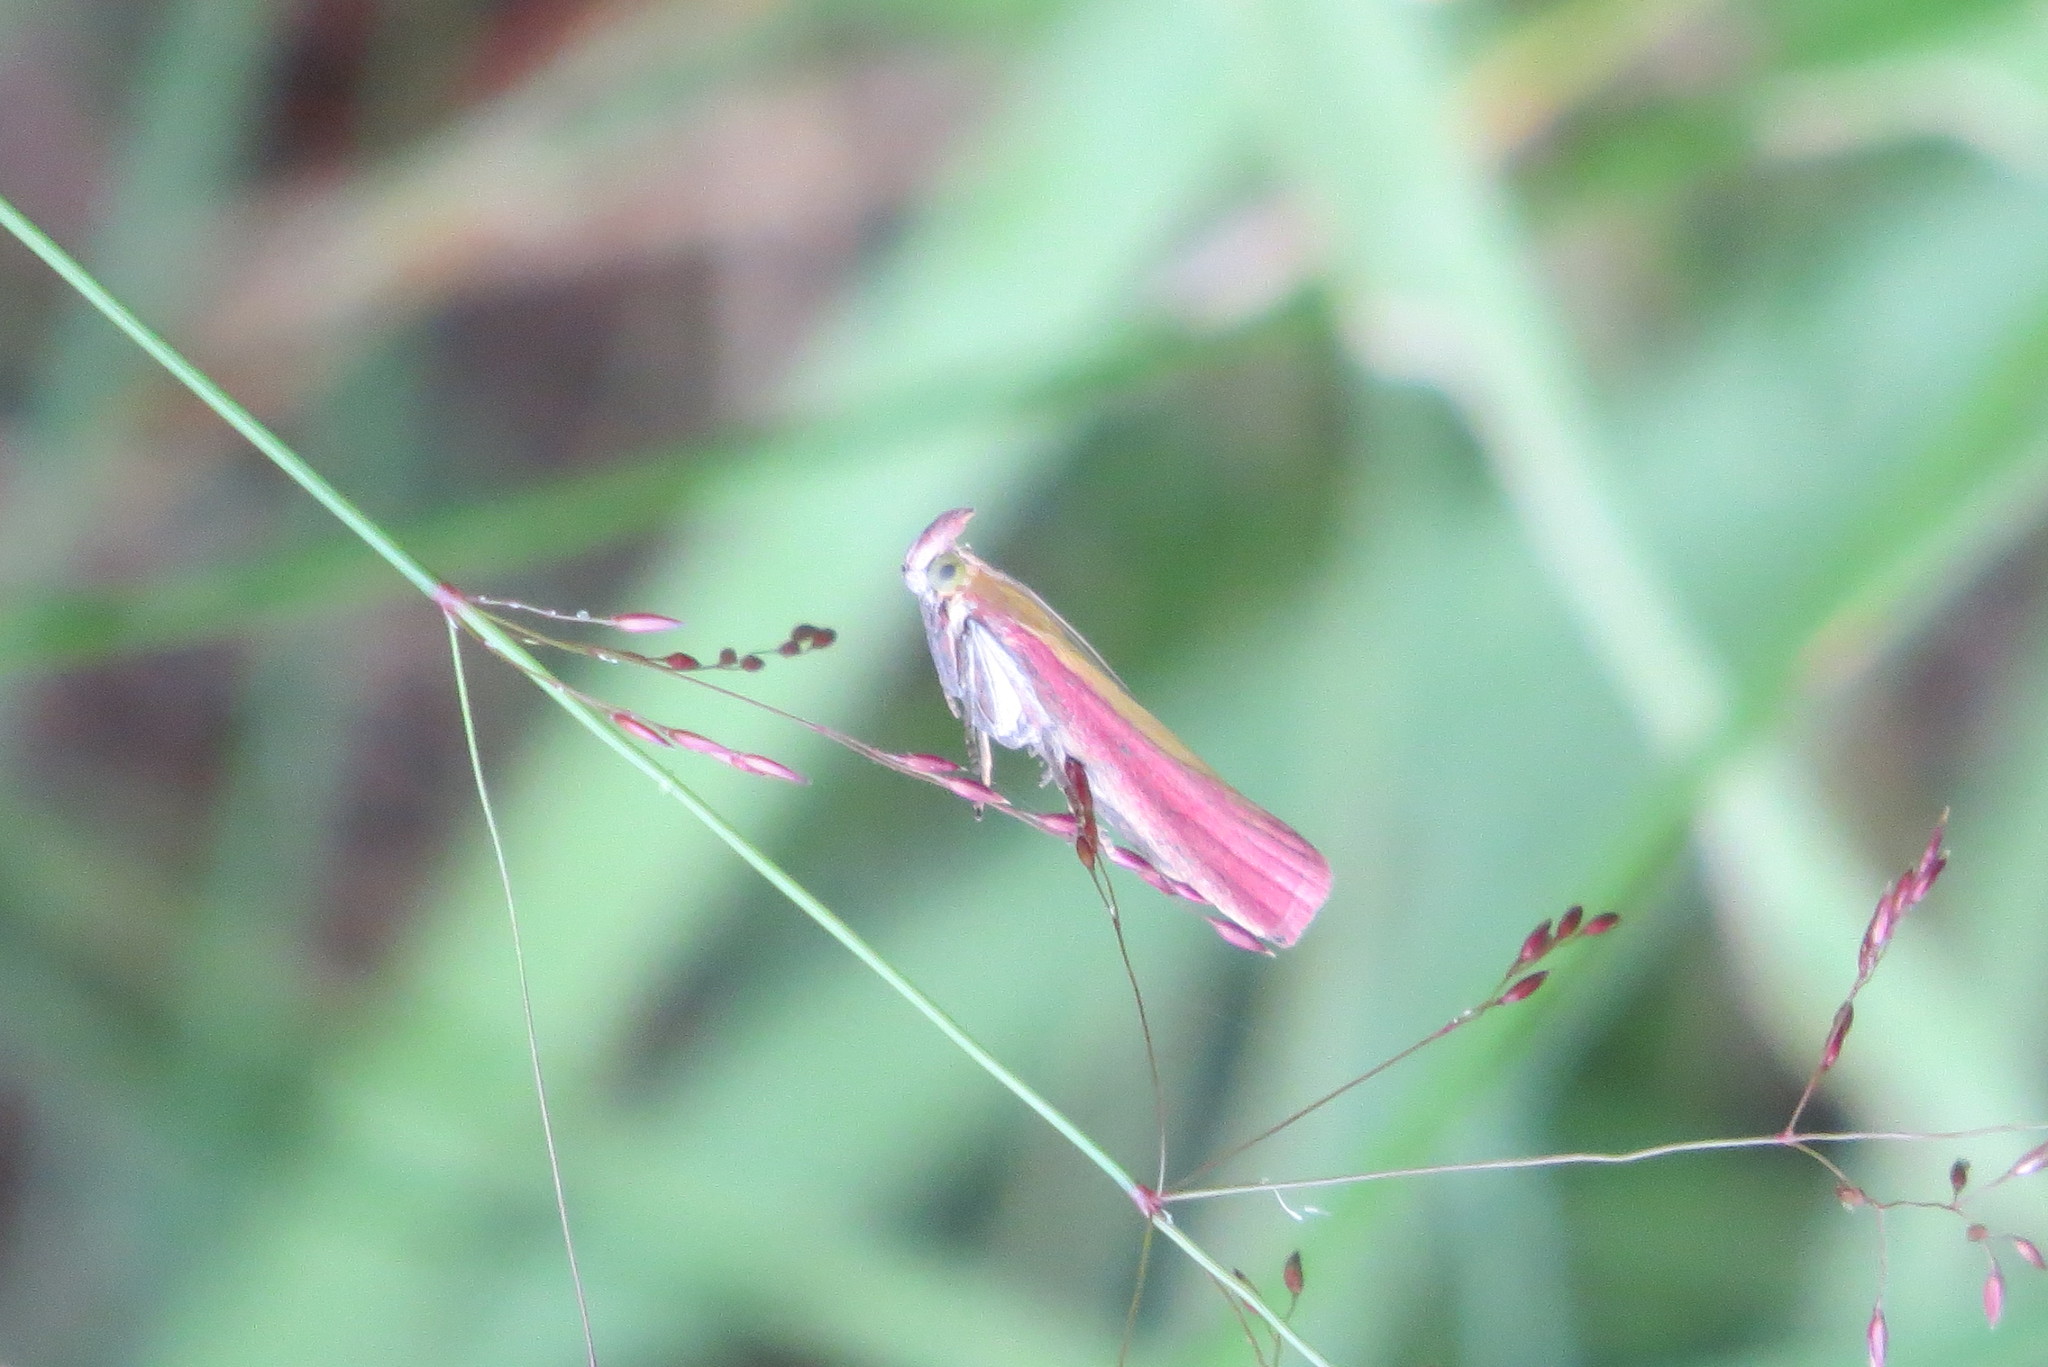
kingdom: Animalia
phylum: Arthropoda
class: Insecta
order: Lepidoptera
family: Pyralidae
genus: Oncocera
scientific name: Oncocera semirubella
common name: Rosy-striped knot-horn
